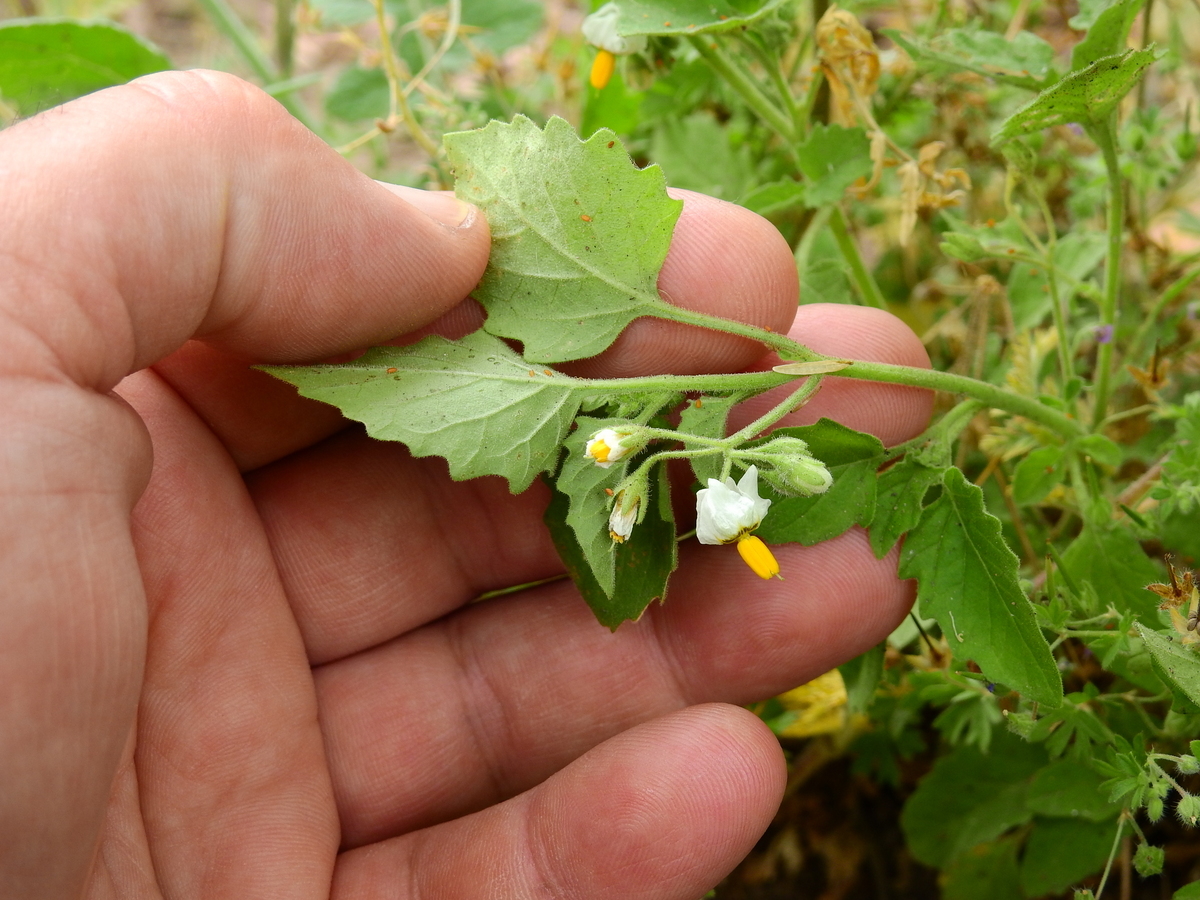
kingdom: Plantae
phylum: Tracheophyta
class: Magnoliopsida
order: Solanales
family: Solanaceae
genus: Solanum
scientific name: Solanum tweedianum
